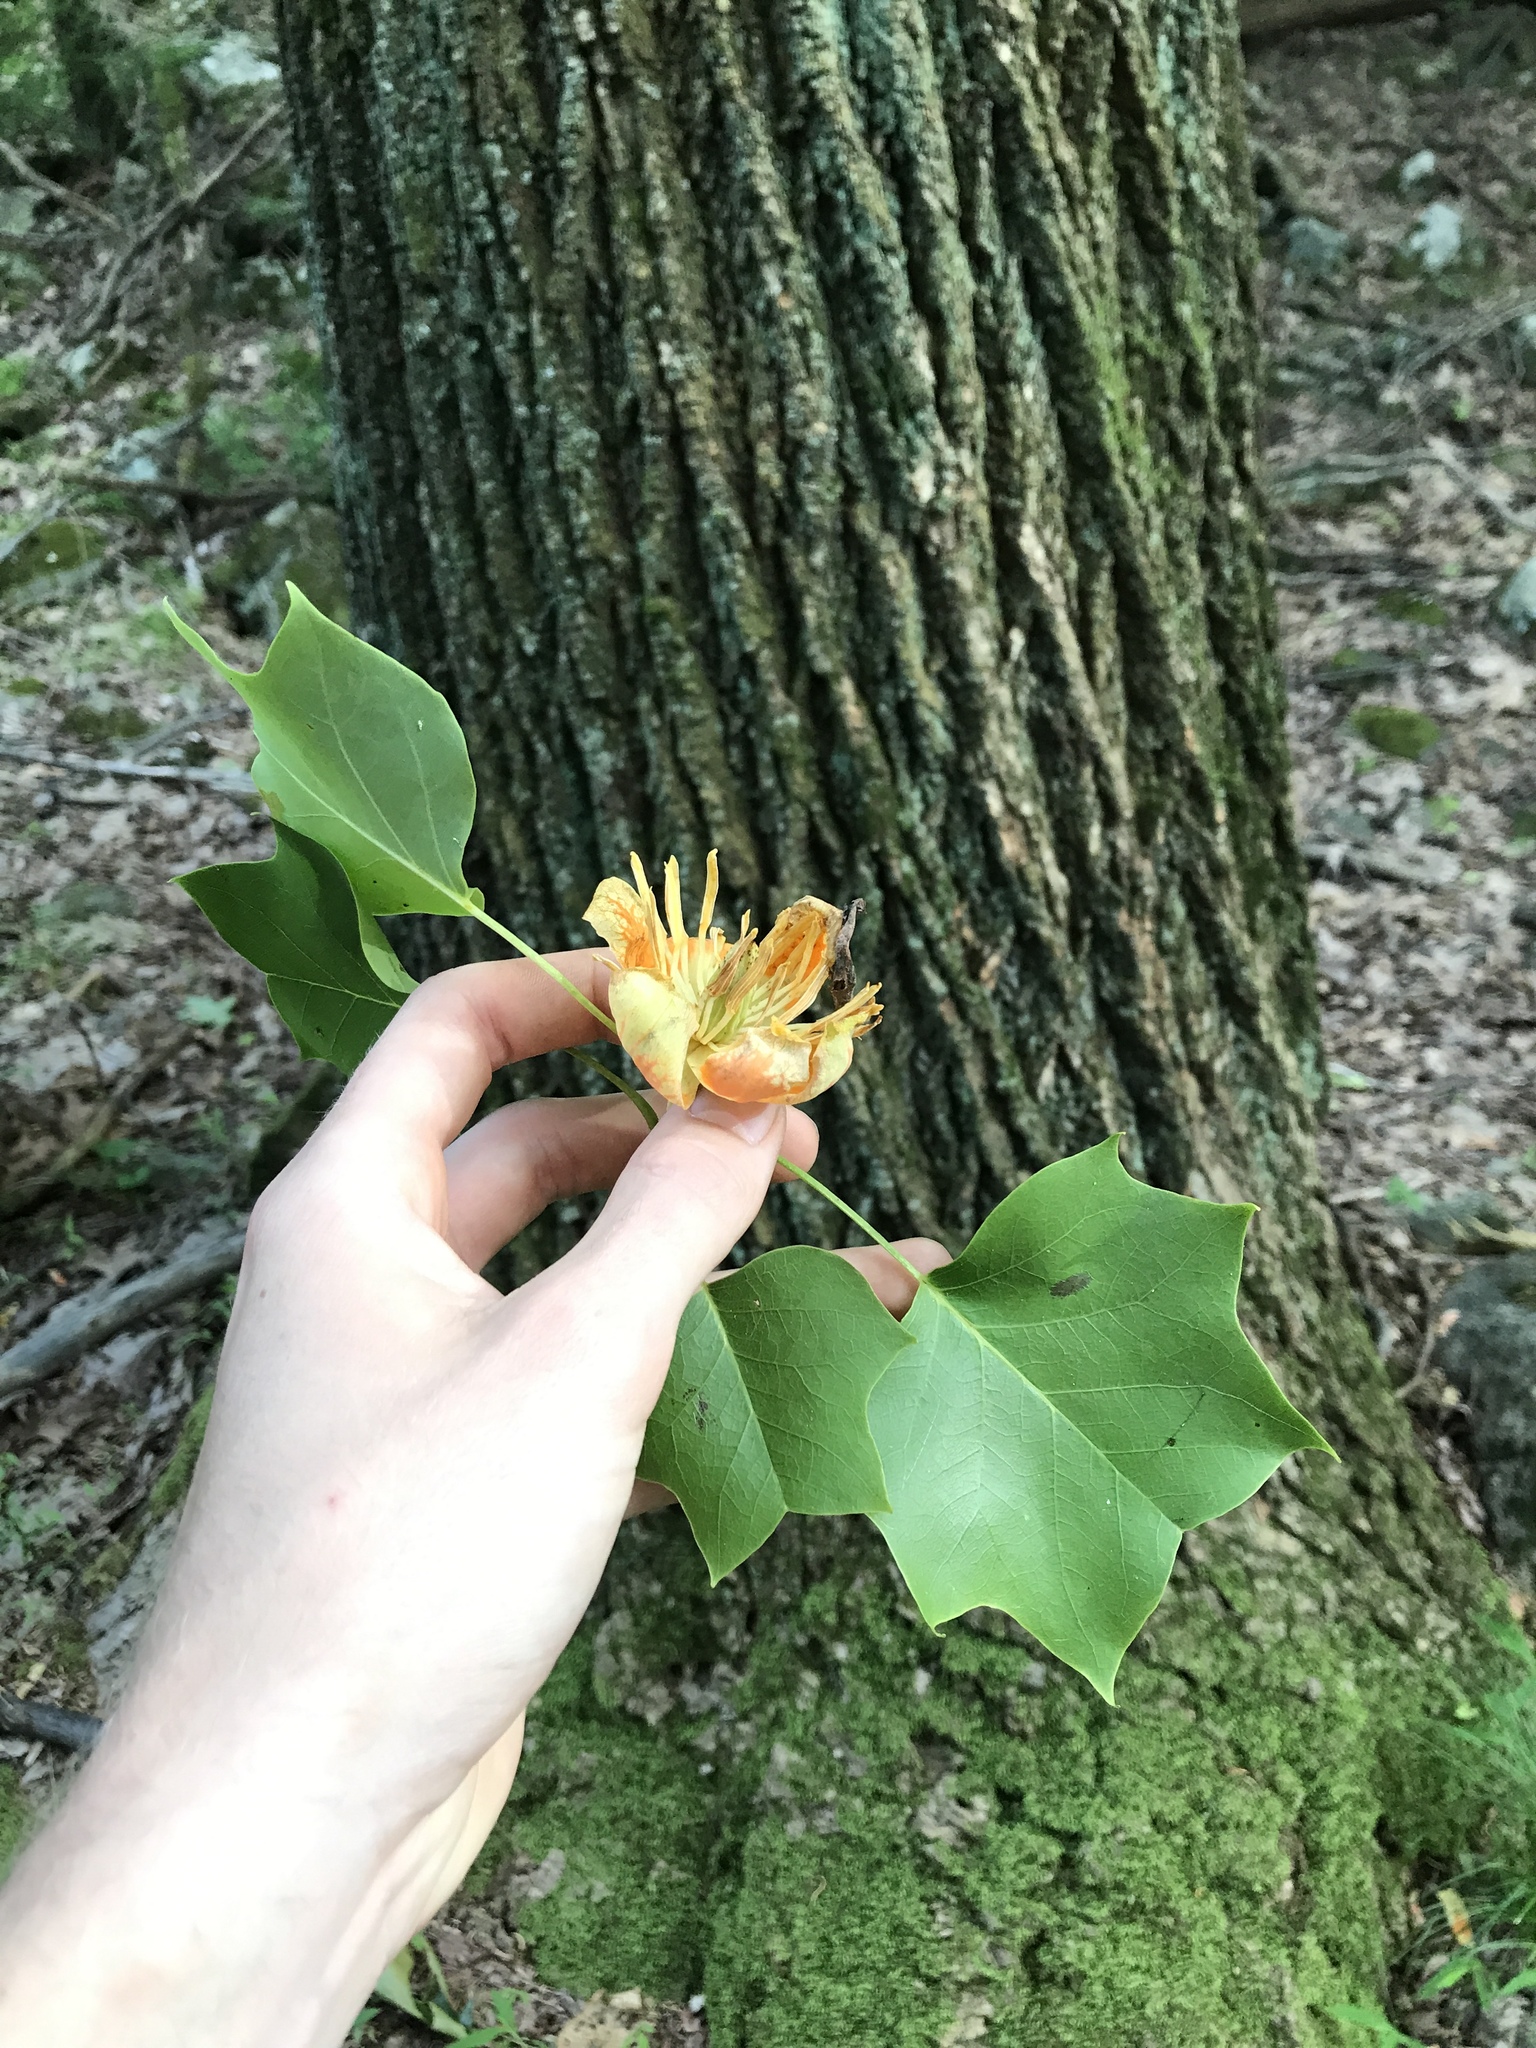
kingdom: Plantae
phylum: Tracheophyta
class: Magnoliopsida
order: Magnoliales
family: Magnoliaceae
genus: Liriodendron
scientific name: Liriodendron tulipifera
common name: Tulip tree
